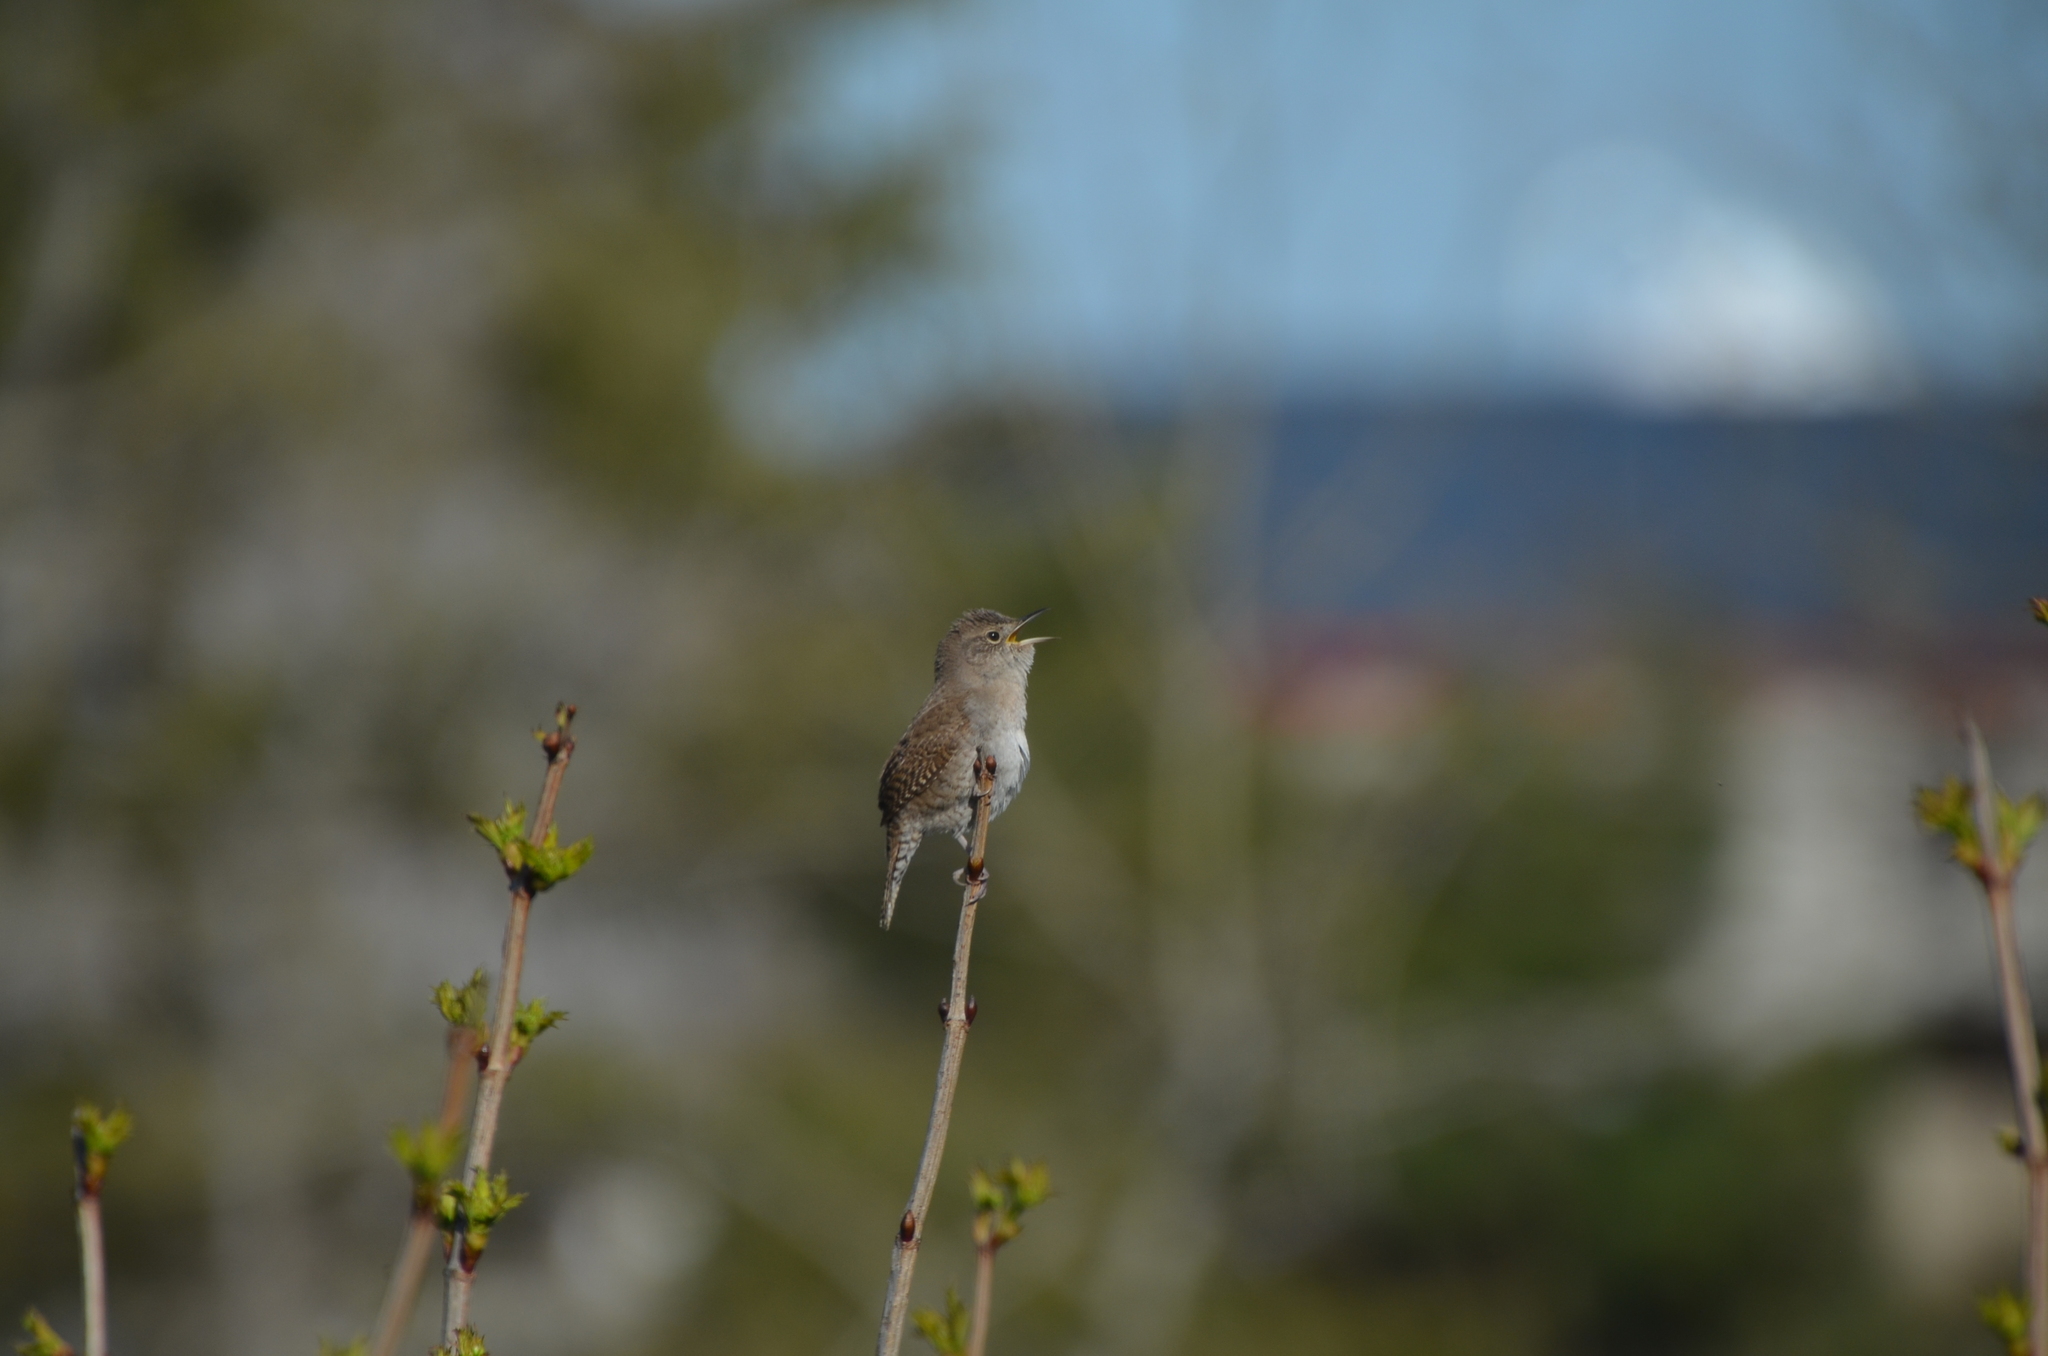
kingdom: Animalia
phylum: Chordata
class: Aves
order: Passeriformes
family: Troglodytidae
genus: Troglodytes
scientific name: Troglodytes aedon
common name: House wren
